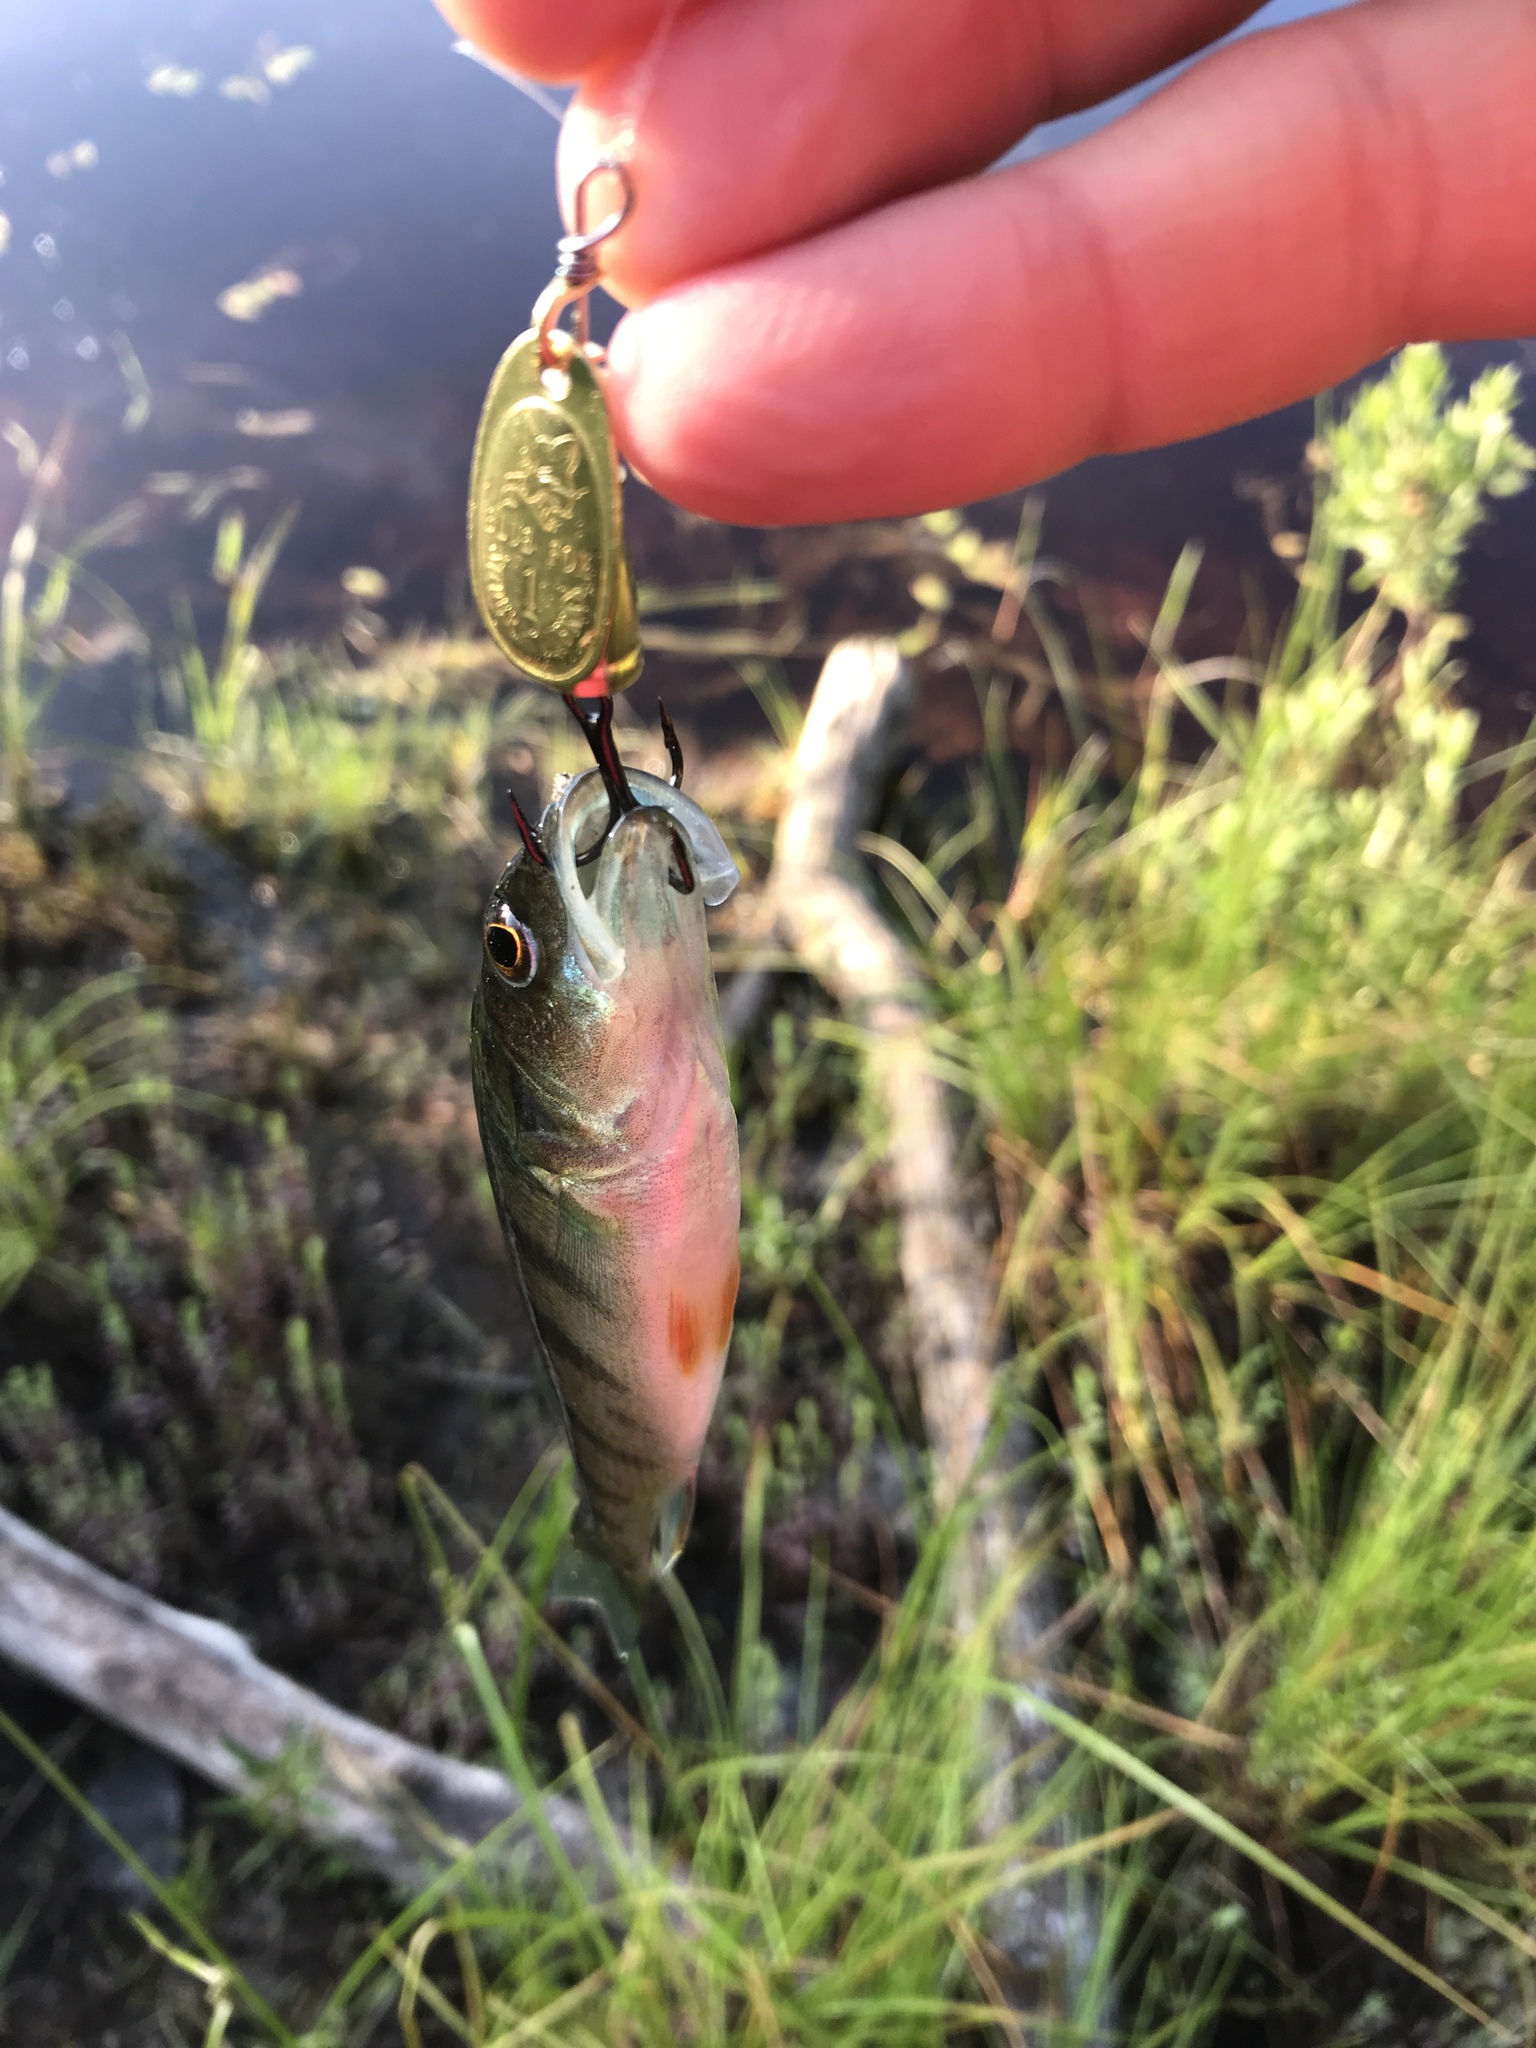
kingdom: Animalia
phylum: Chordata
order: Perciformes
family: Percidae
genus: Perca
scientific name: Perca flavescens
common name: Yellow perch
